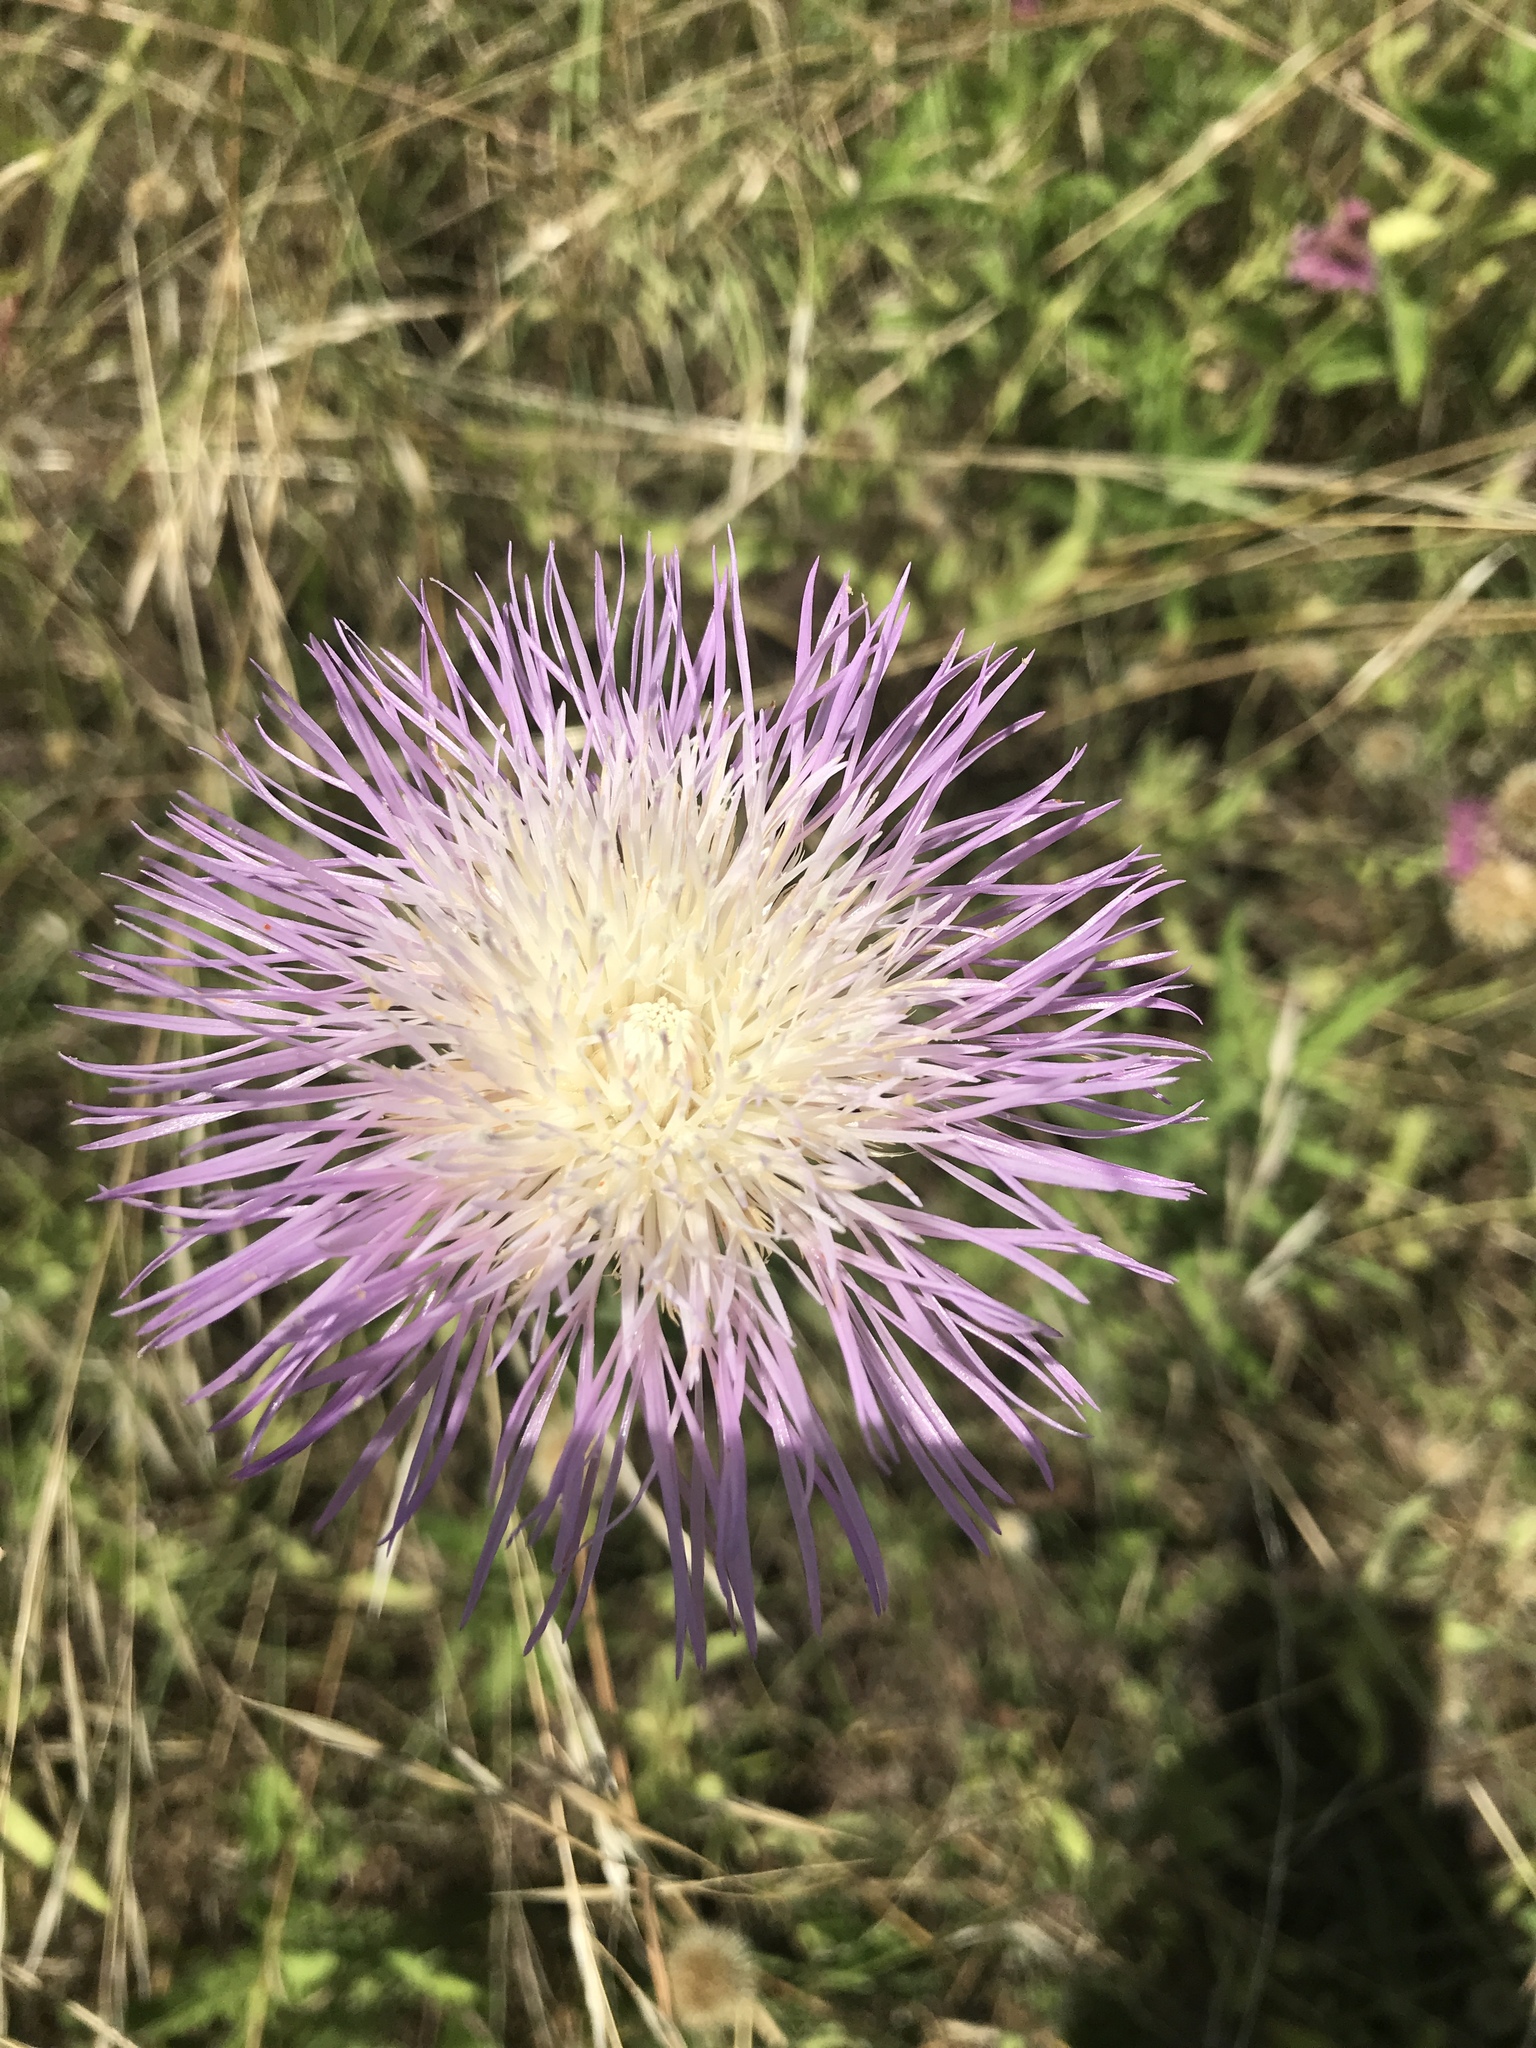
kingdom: Plantae
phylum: Tracheophyta
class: Magnoliopsida
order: Asterales
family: Asteraceae
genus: Plectocephalus
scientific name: Plectocephalus americanus
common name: American basket-flower
